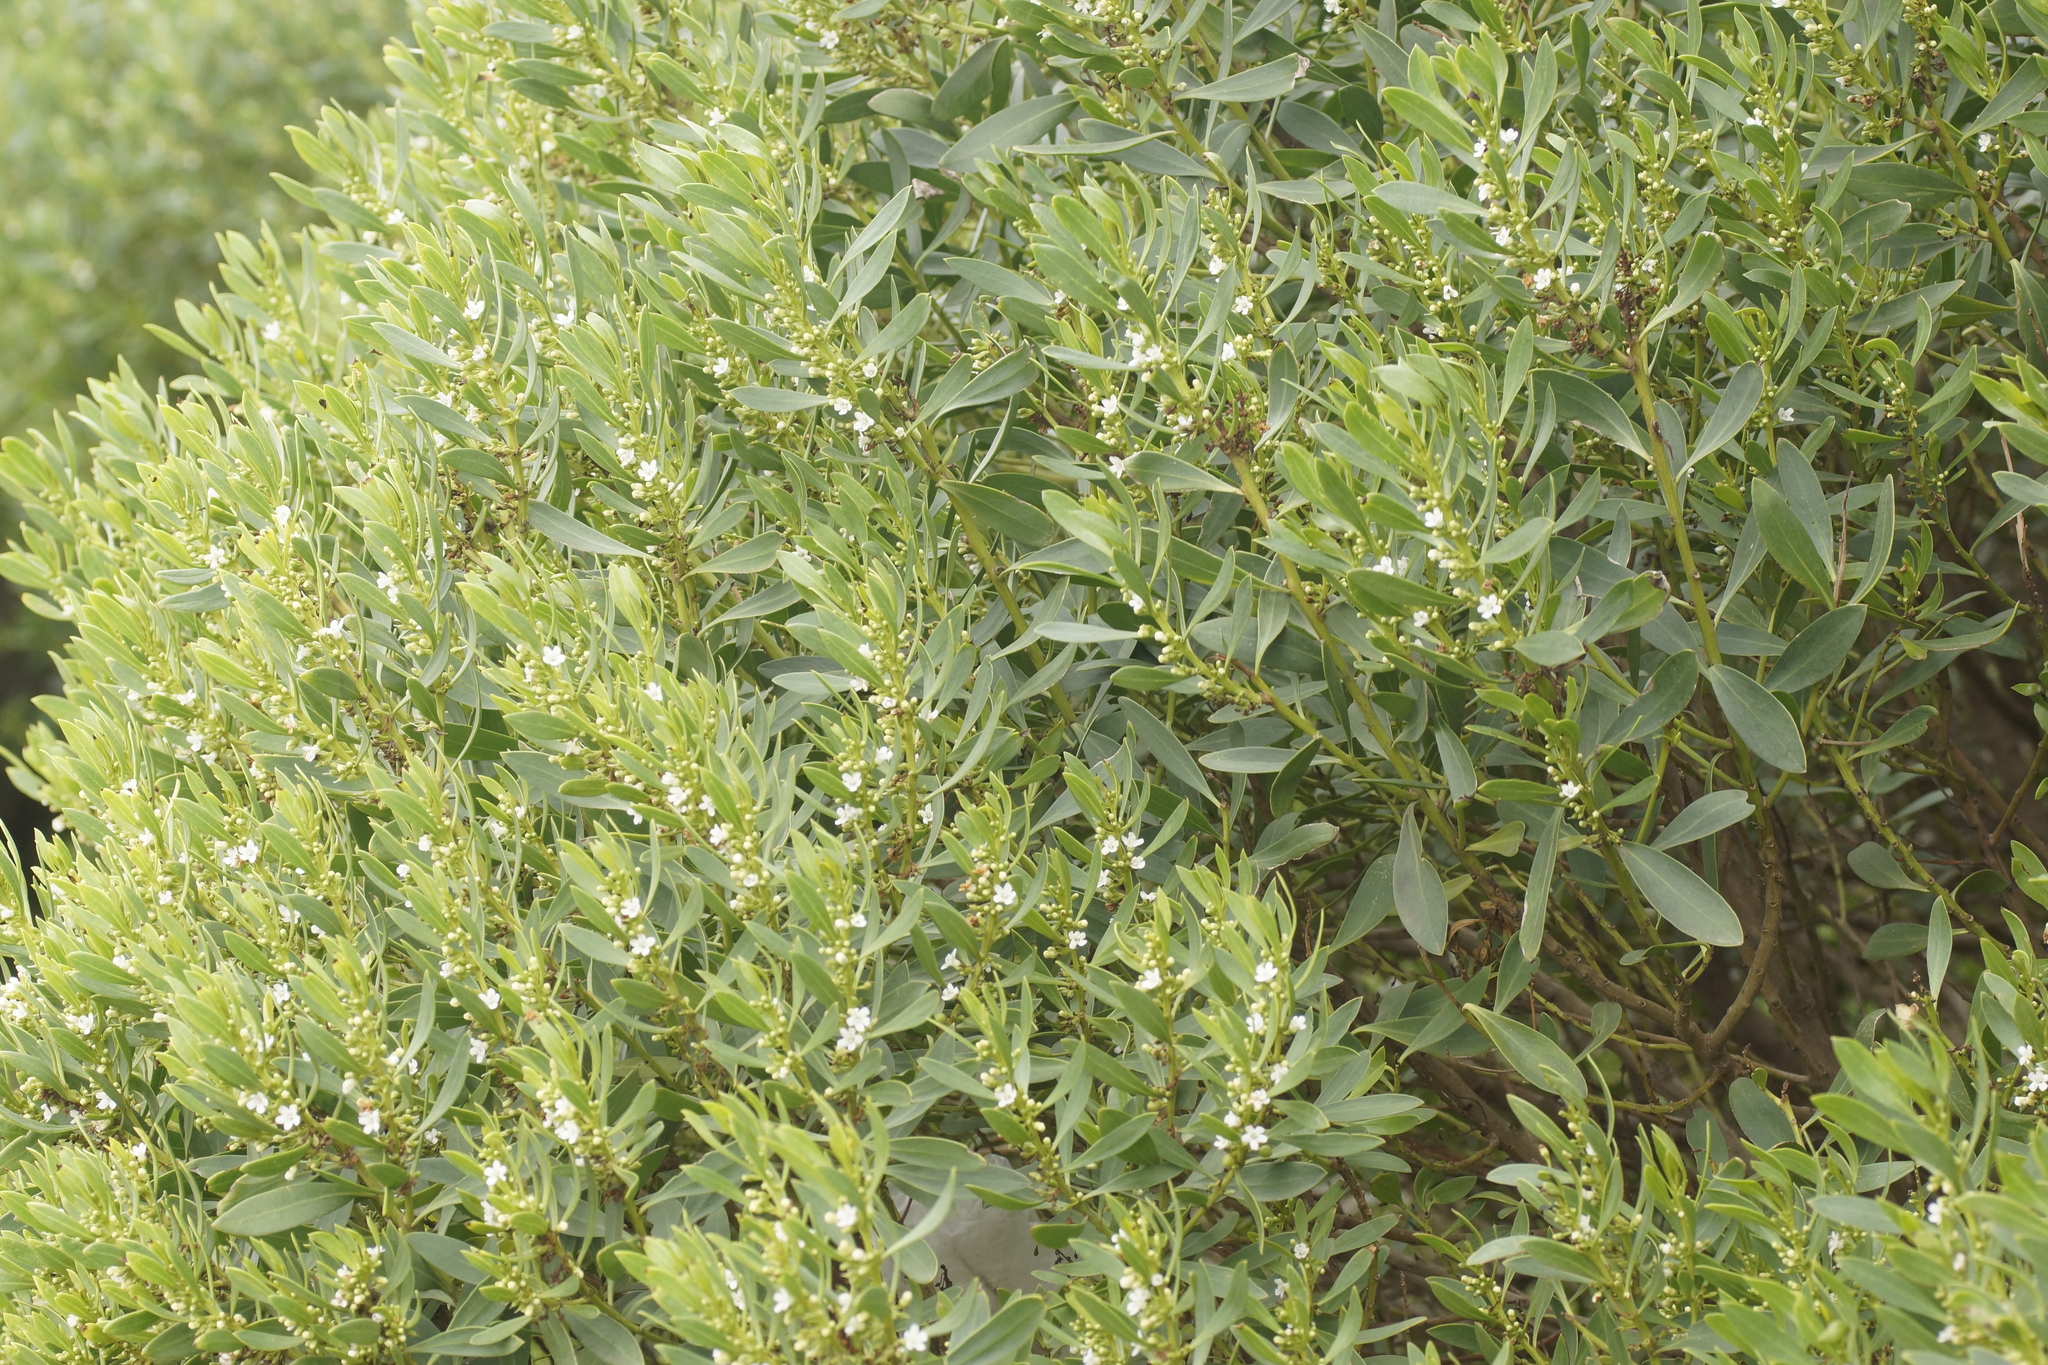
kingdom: Plantae
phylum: Tracheophyta
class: Magnoliopsida
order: Lamiales
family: Scrophulariaceae
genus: Myoporum
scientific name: Myoporum insulare
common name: Common boobialla
